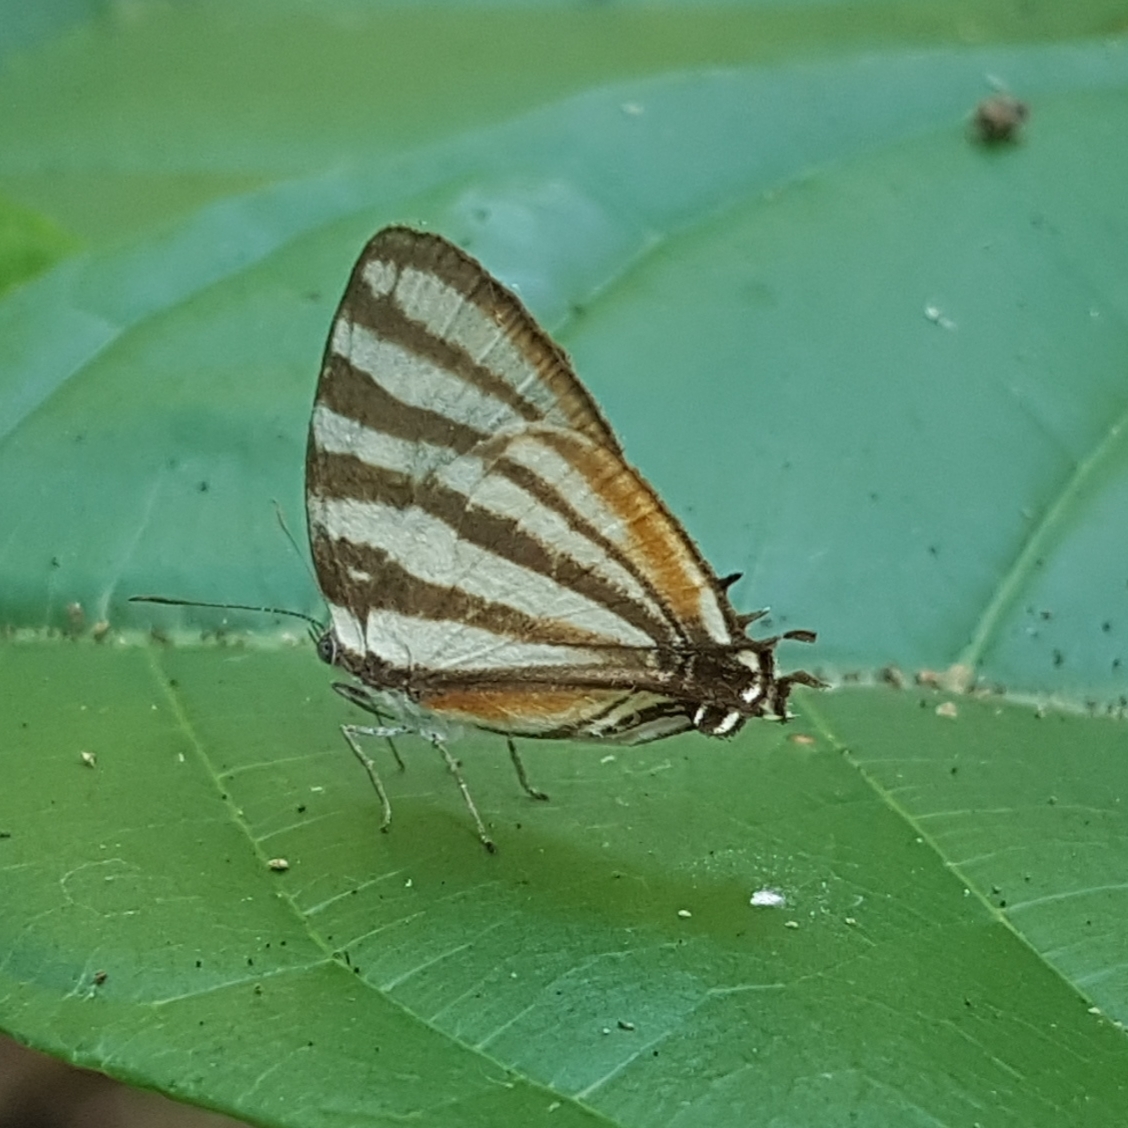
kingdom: Animalia
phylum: Arthropoda
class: Insecta
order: Lepidoptera
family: Lycaenidae
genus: Arawacus
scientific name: Arawacus lincoides
